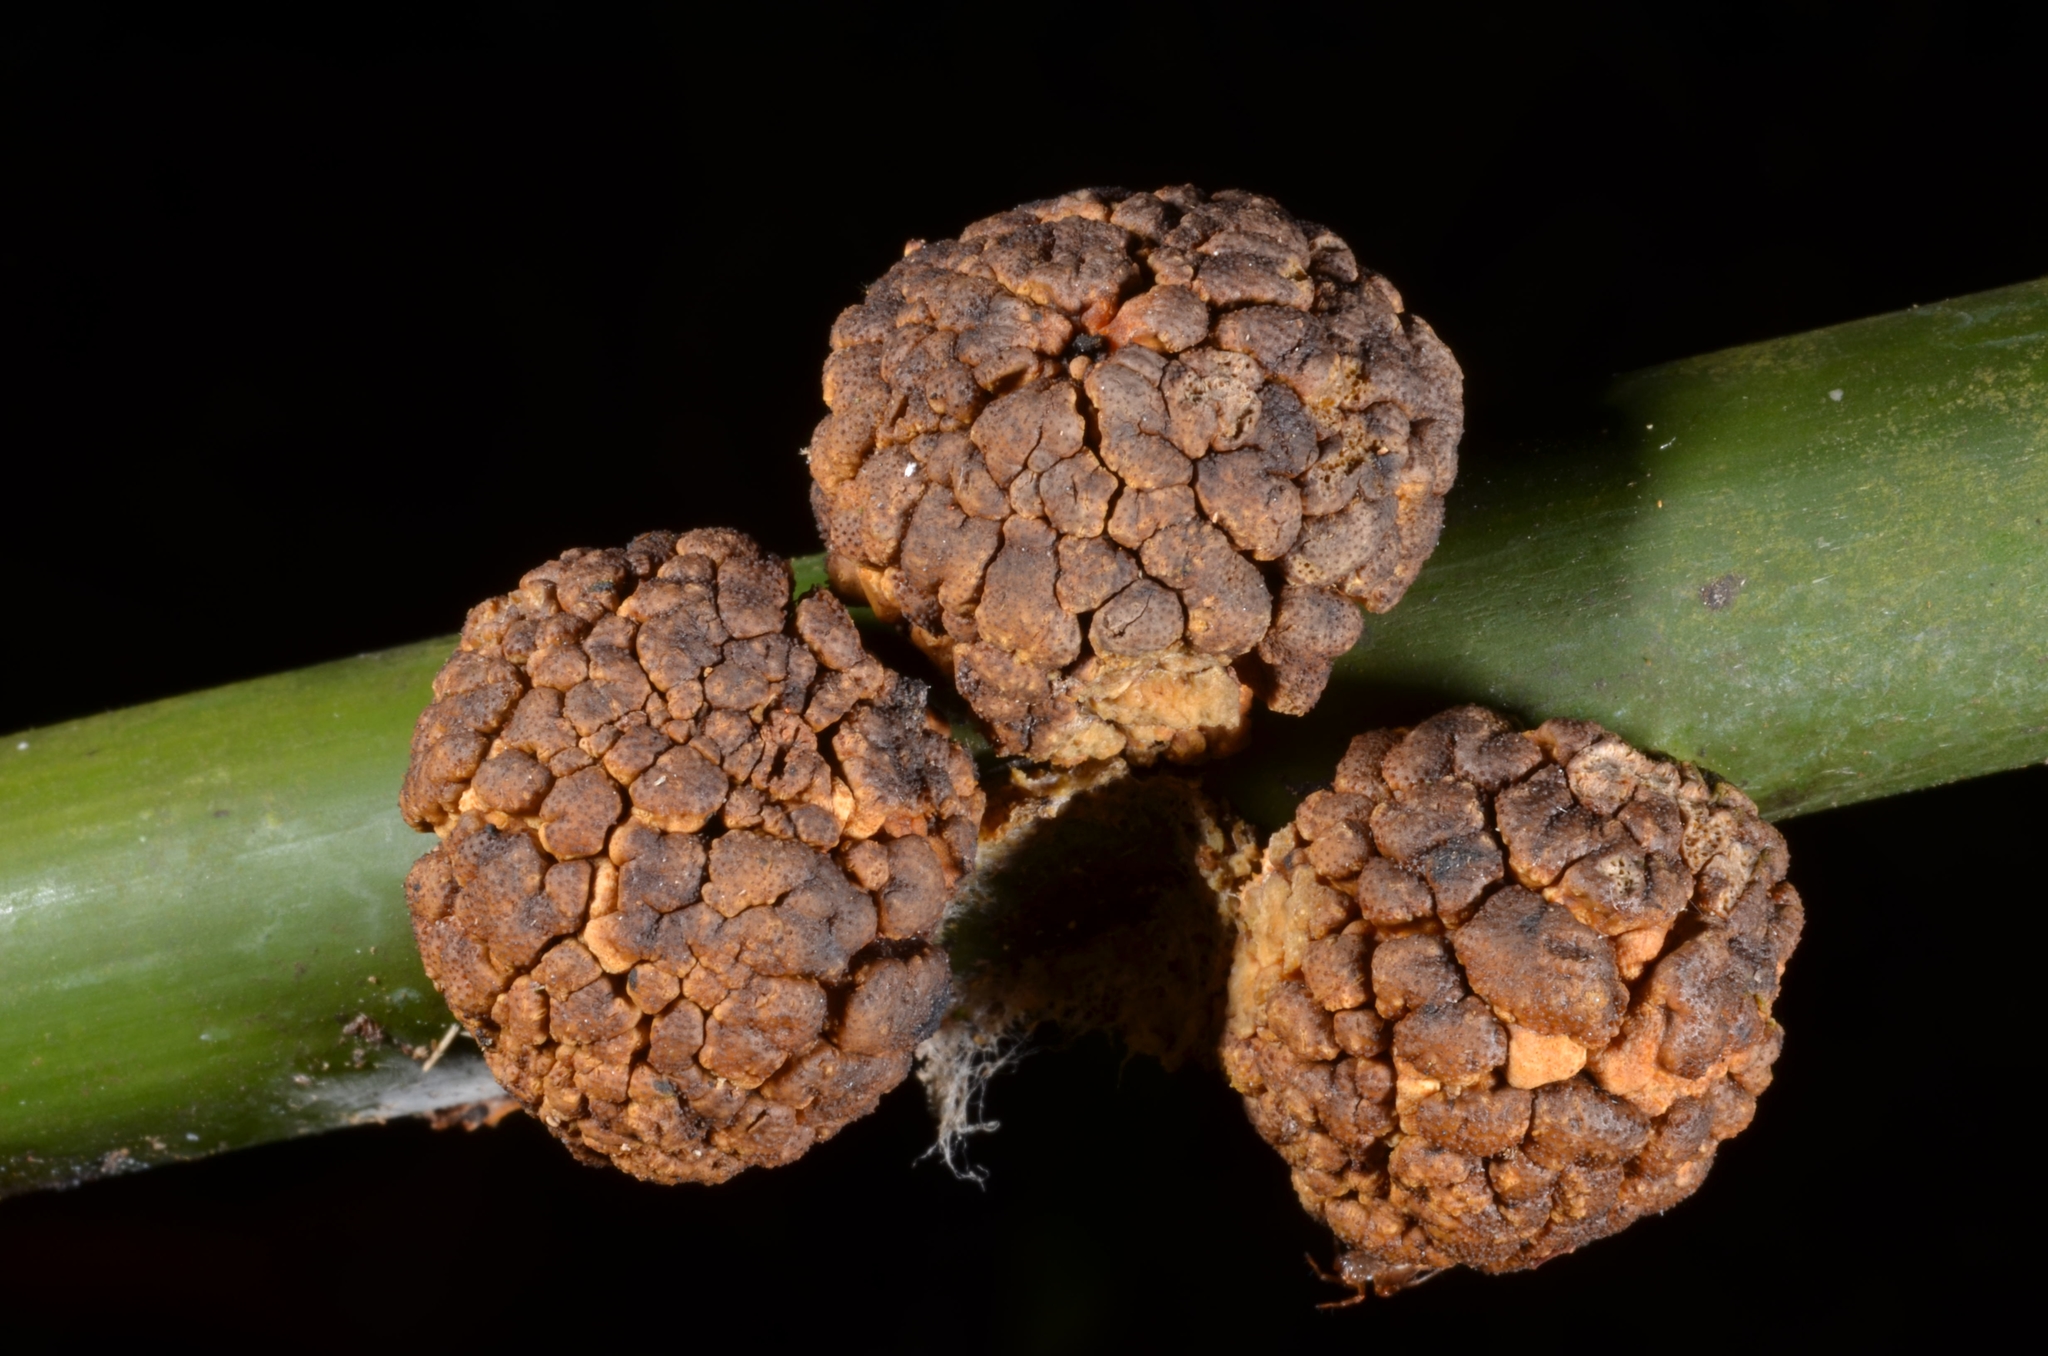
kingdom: Fungi
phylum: Ascomycota
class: Sordariomycetes
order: Hypocreales
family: Clavicipitaceae
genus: Hypocrella
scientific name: Hypocrella
